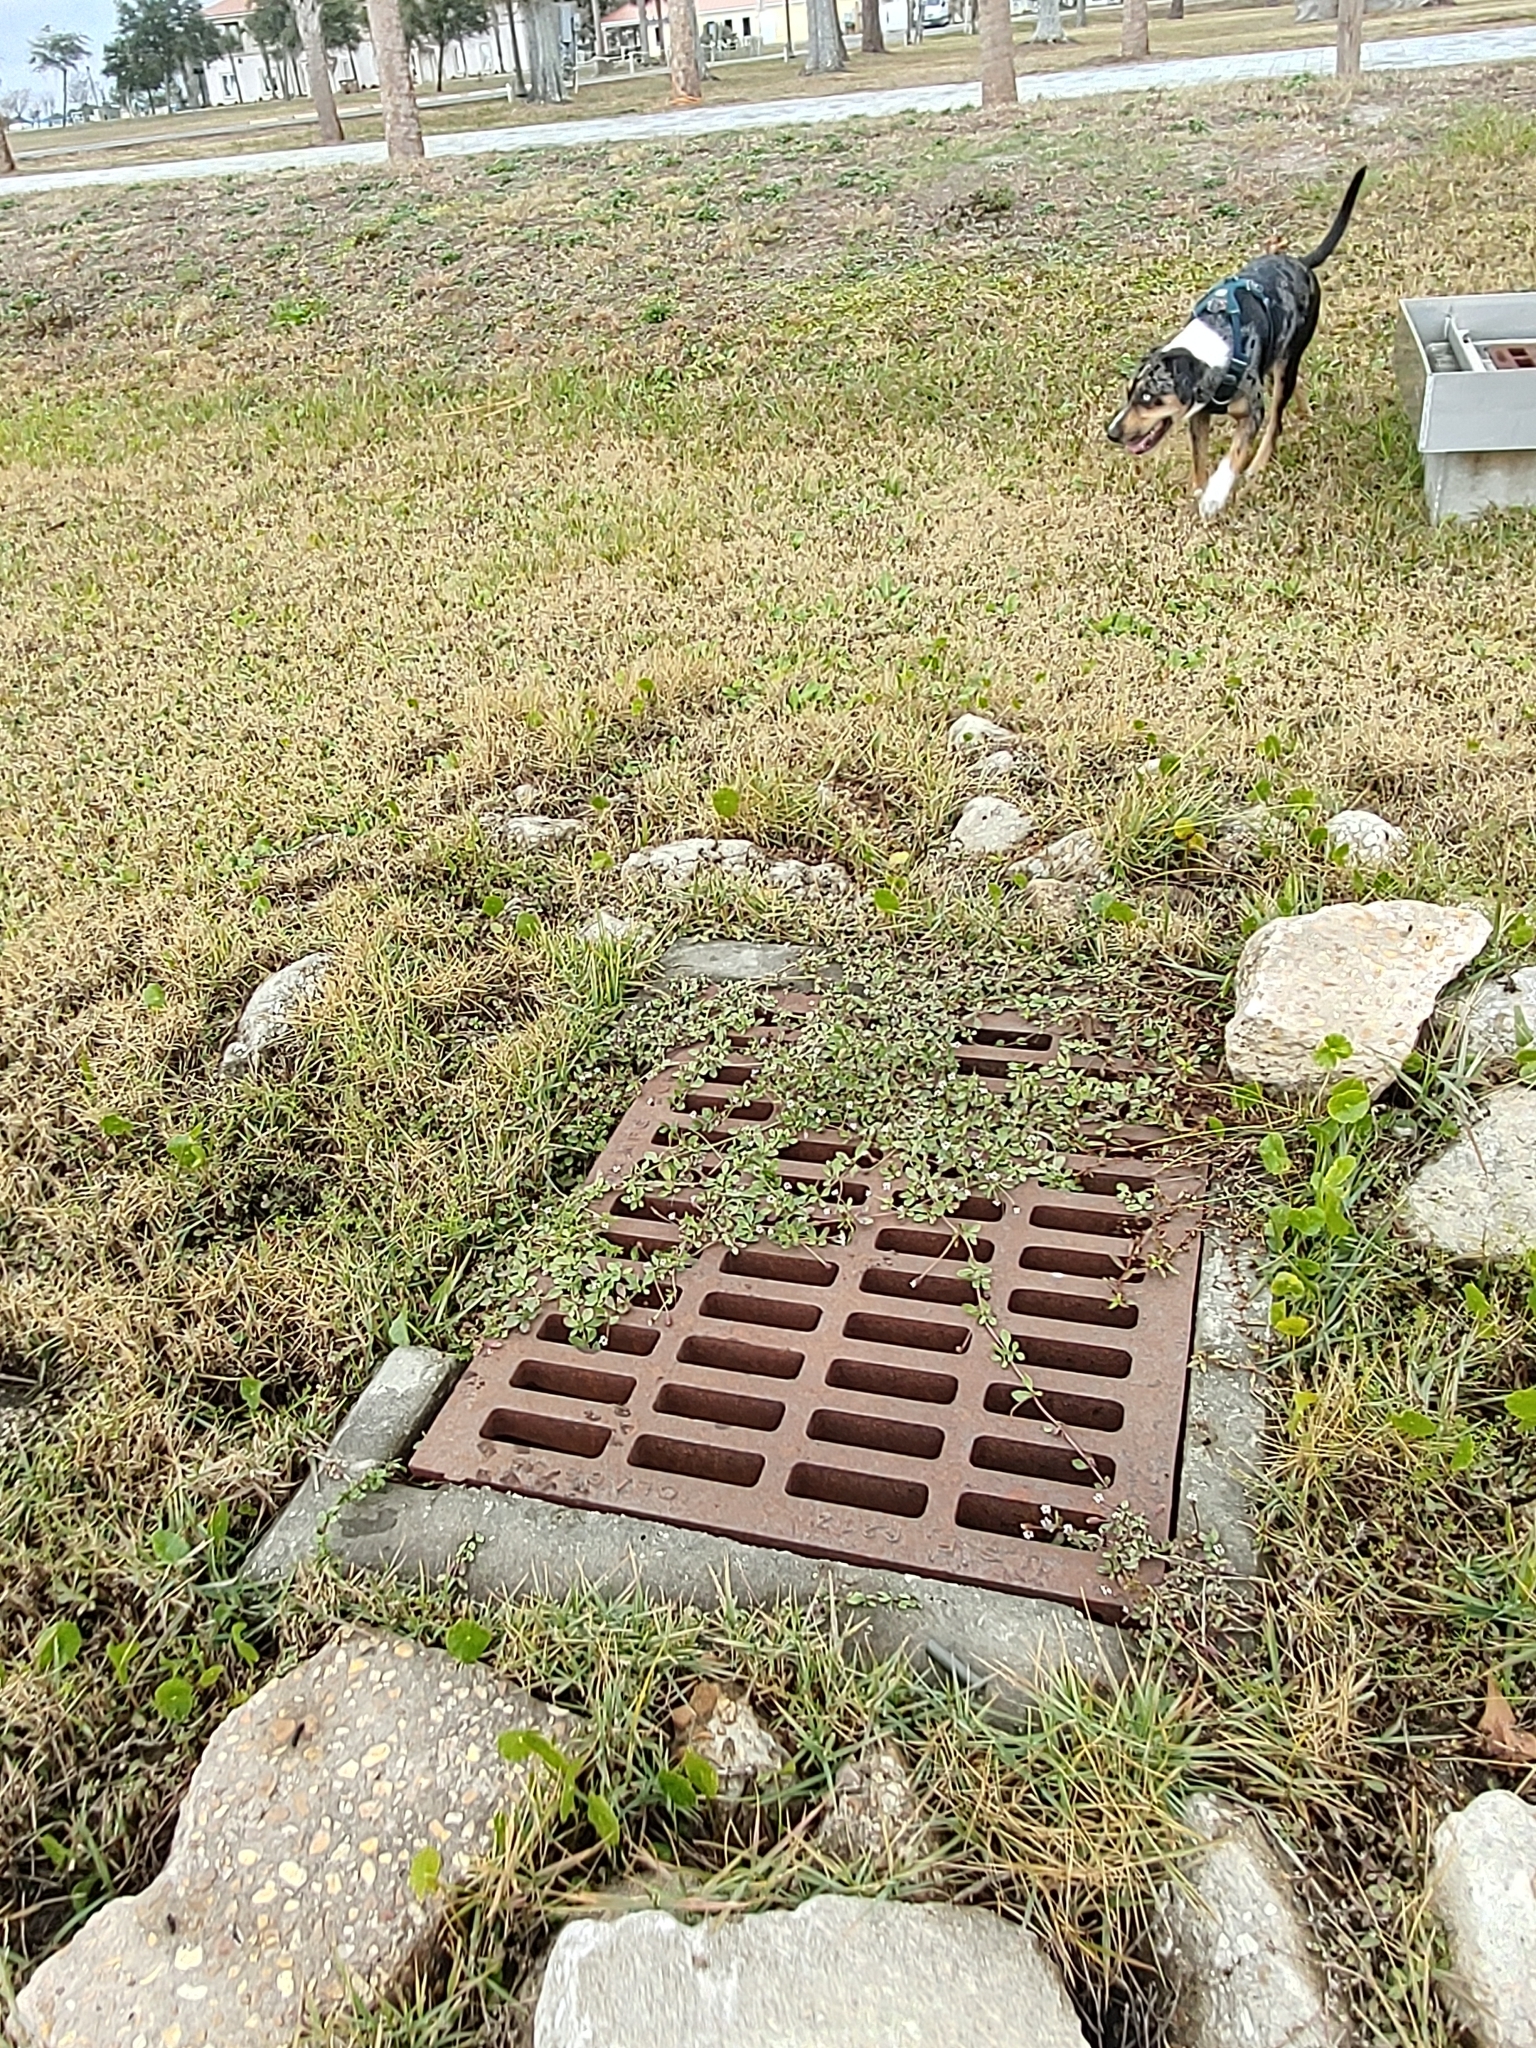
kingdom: Plantae
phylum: Tracheophyta
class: Magnoliopsida
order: Lamiales
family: Verbenaceae
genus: Phyla
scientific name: Phyla nodiflora
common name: Frogfruit
